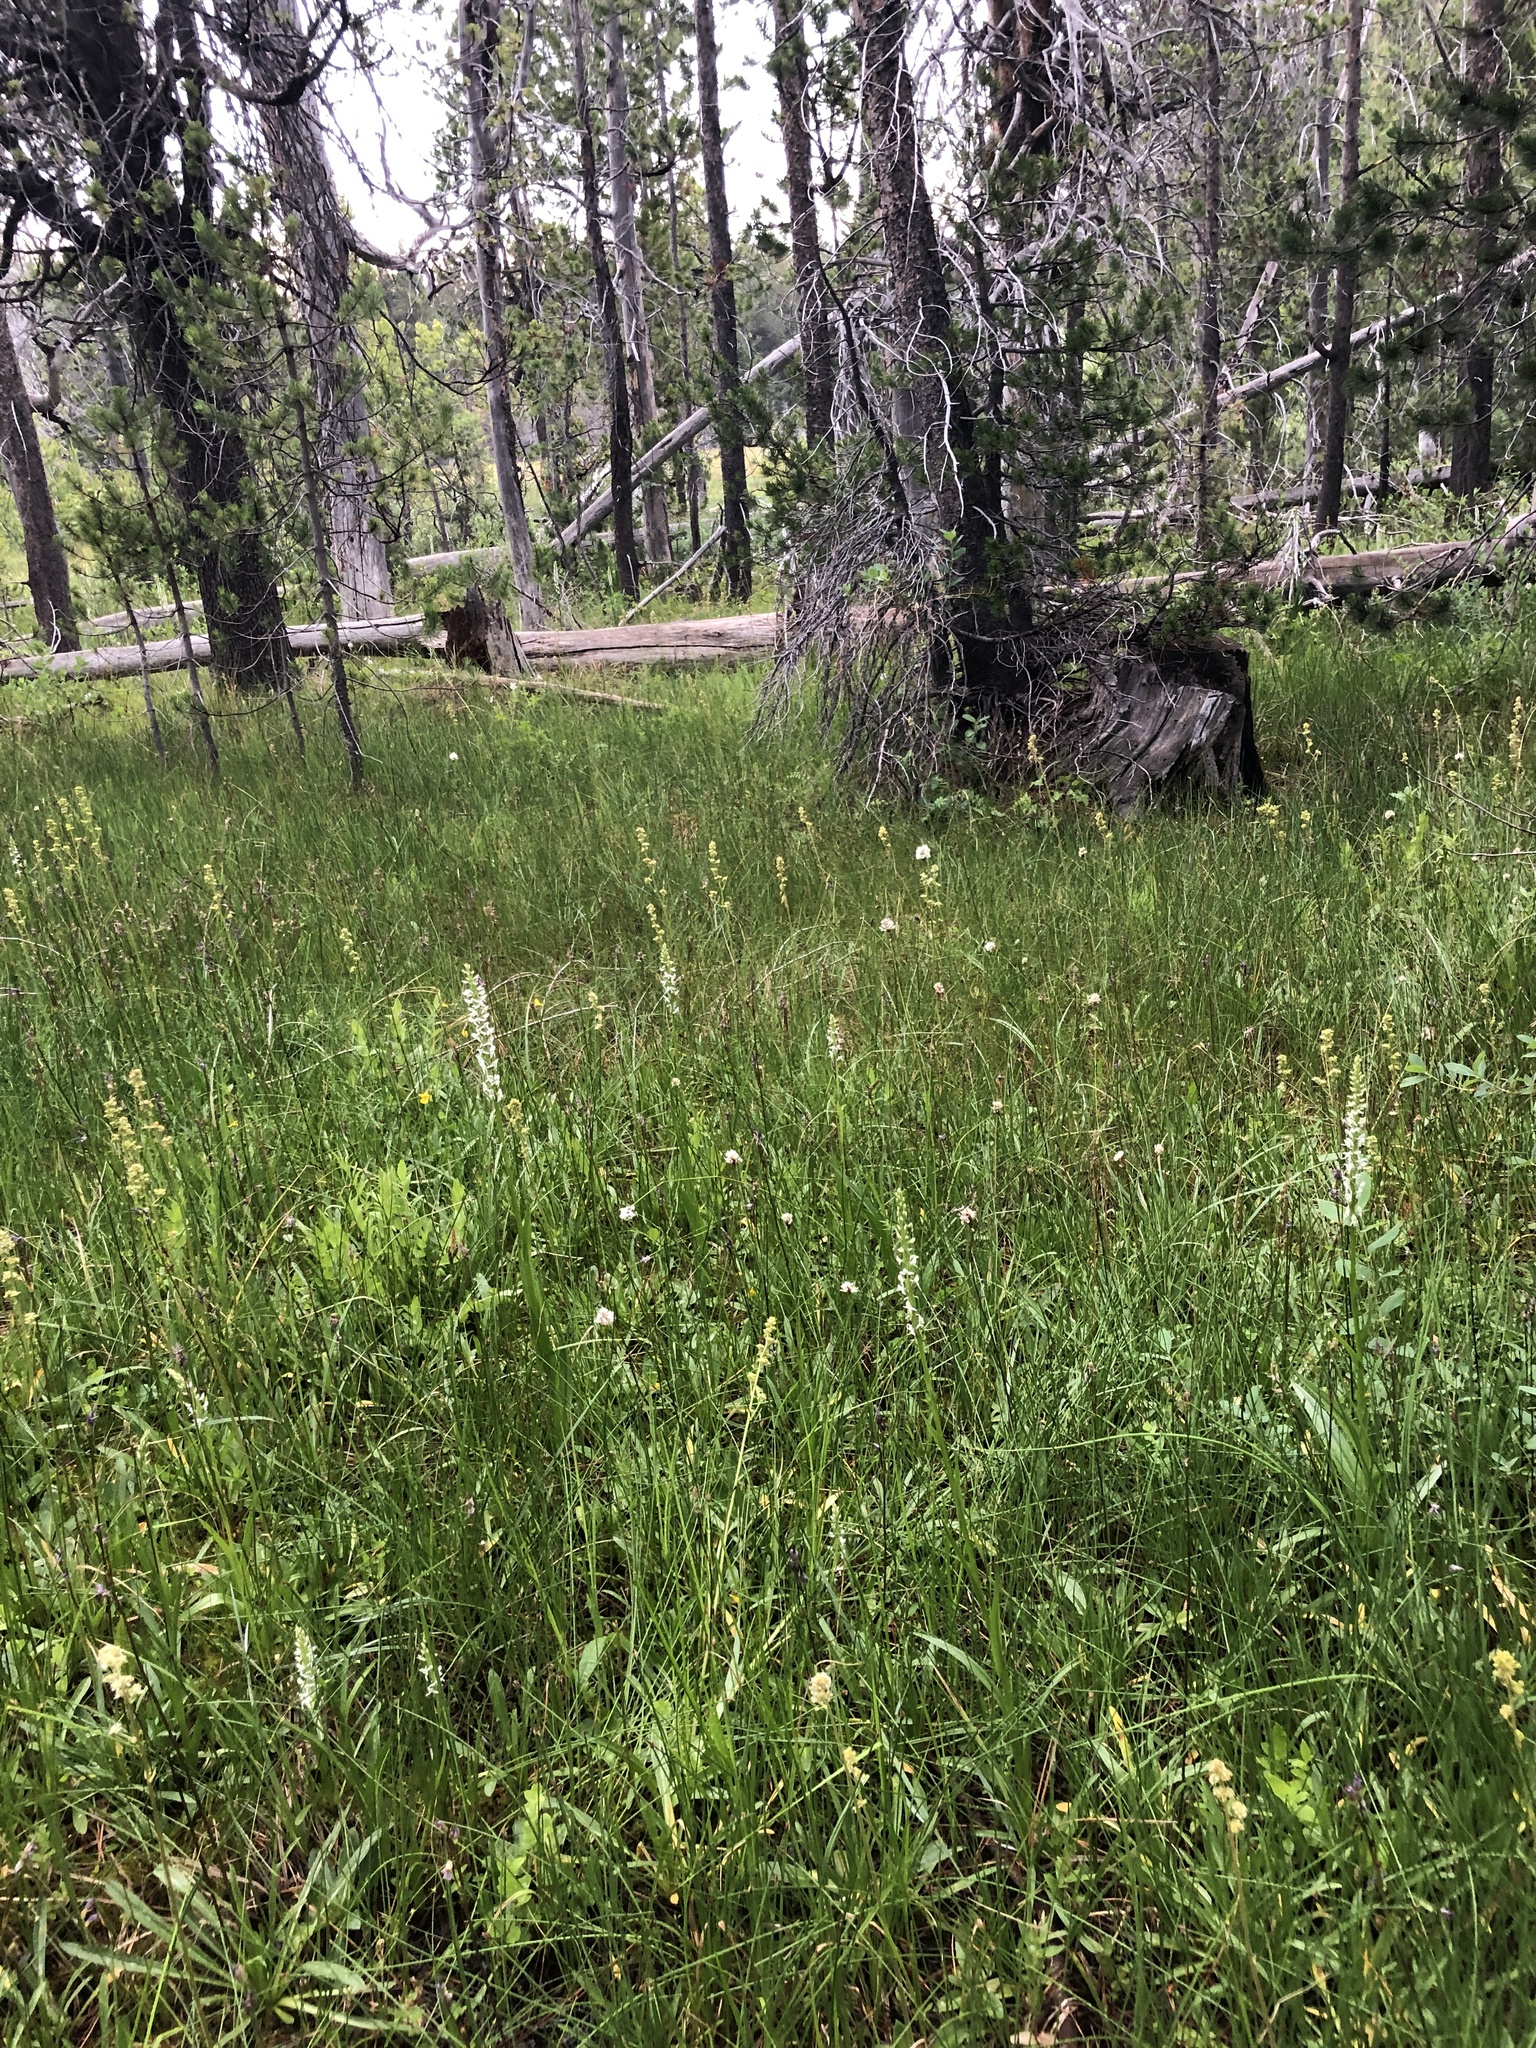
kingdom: Plantae
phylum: Tracheophyta
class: Liliopsida
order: Asparagales
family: Orchidaceae
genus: Platanthera
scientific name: Platanthera dilatata
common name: Bog candles
